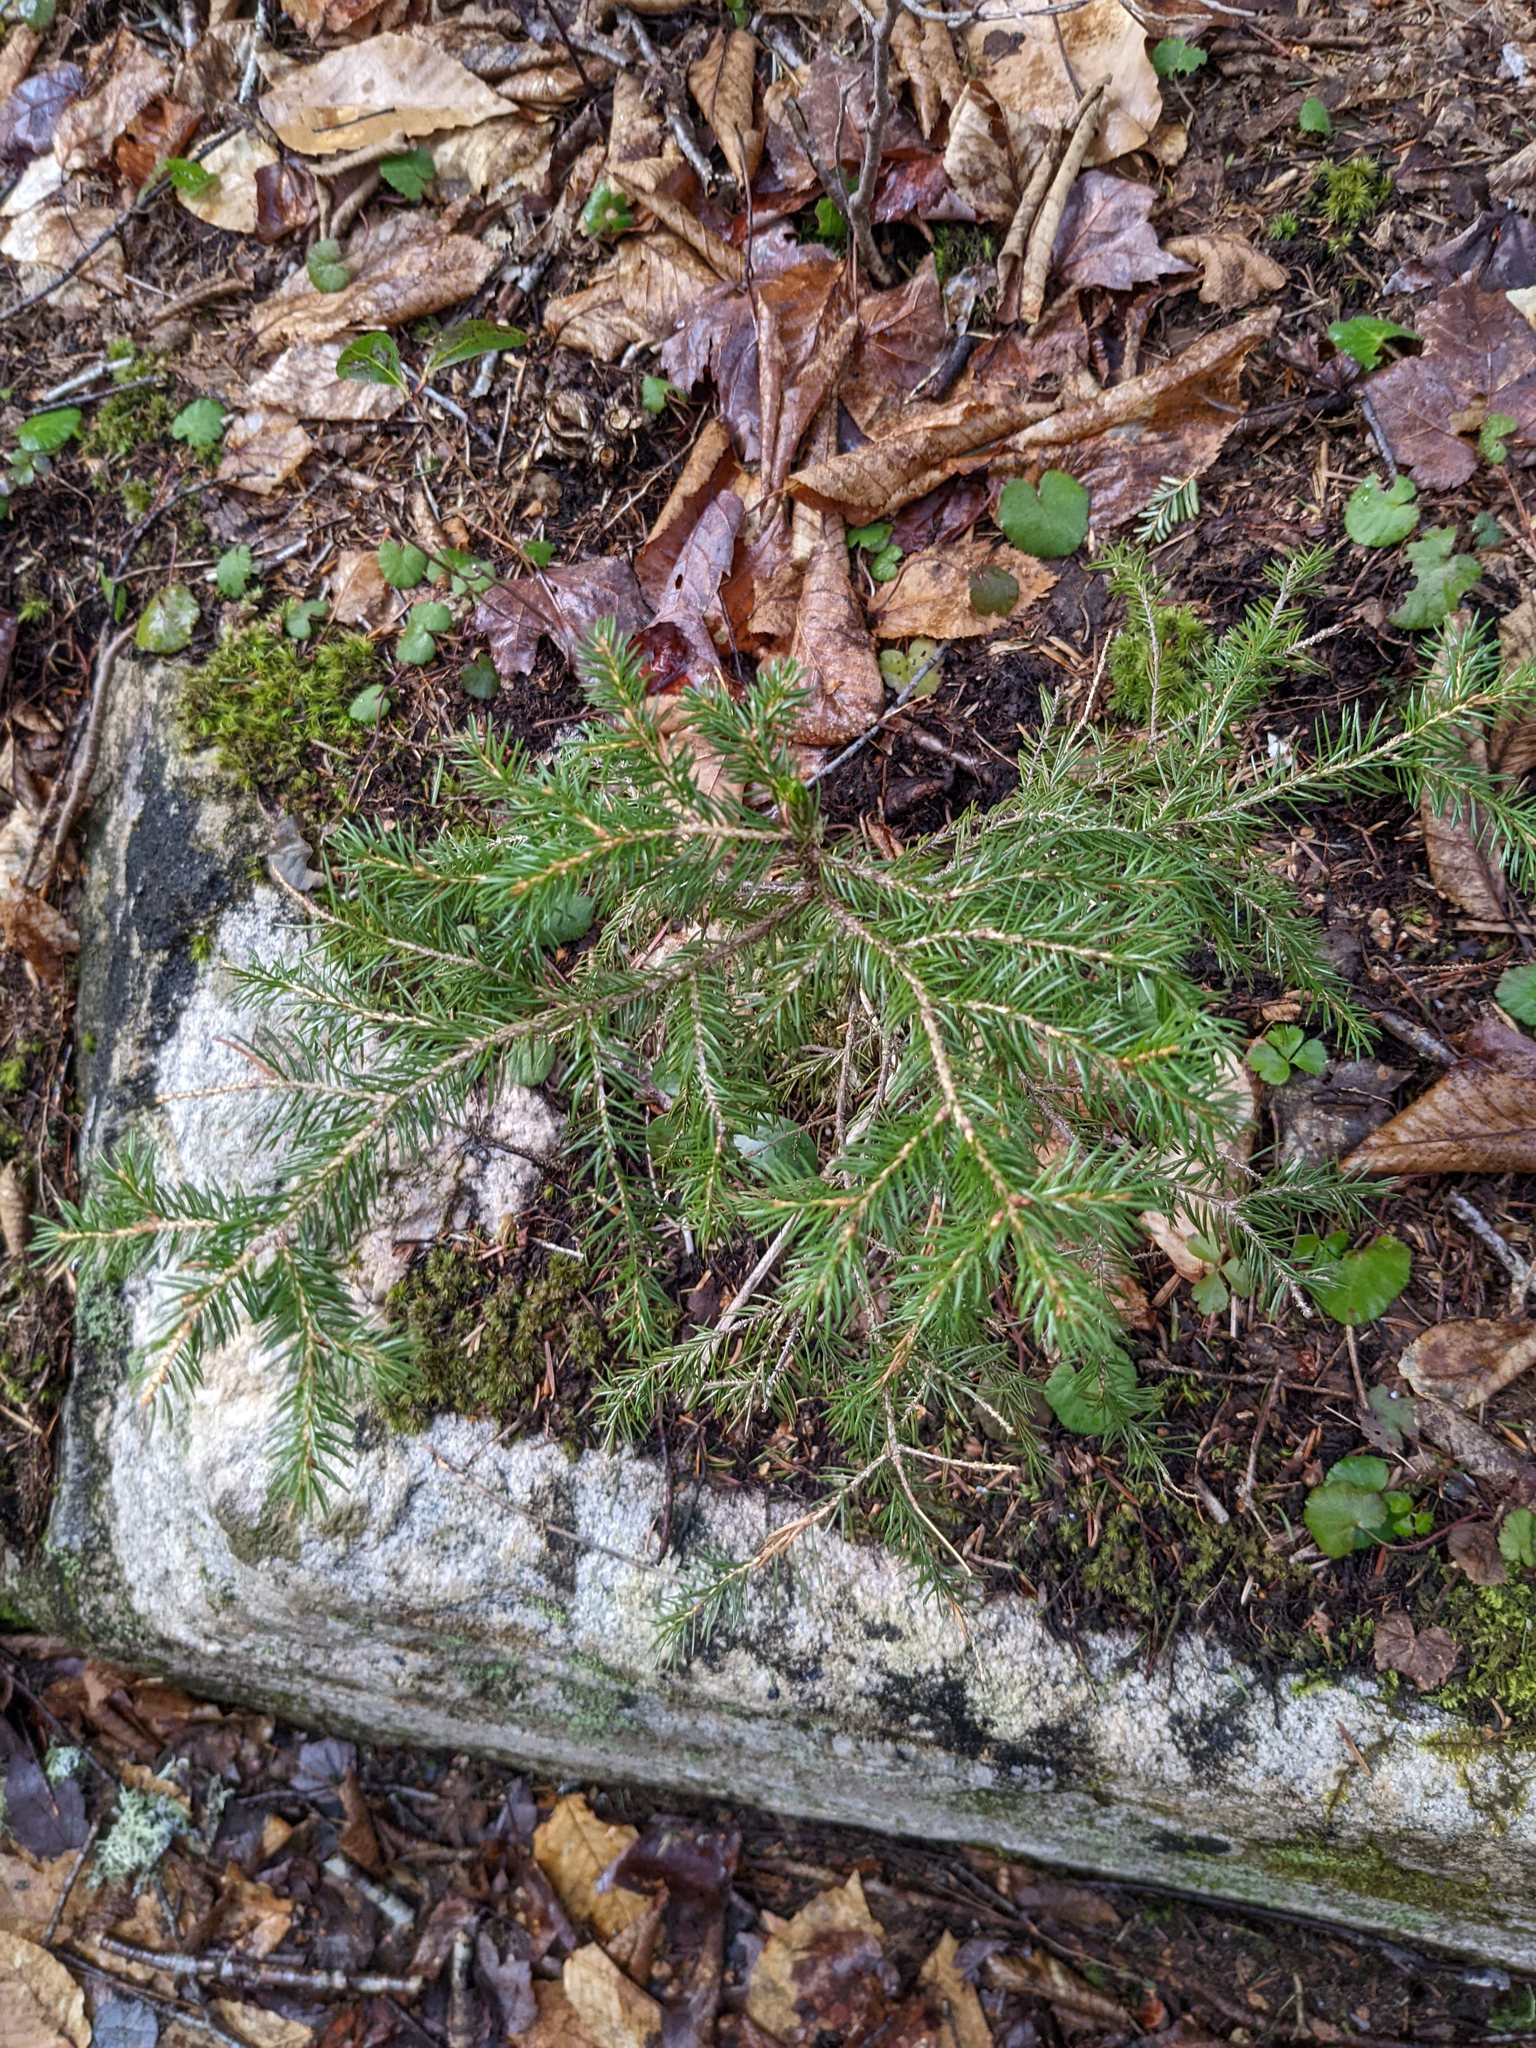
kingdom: Plantae
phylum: Tracheophyta
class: Pinopsida
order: Pinales
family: Pinaceae
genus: Picea
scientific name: Picea rubens
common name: Red spruce
